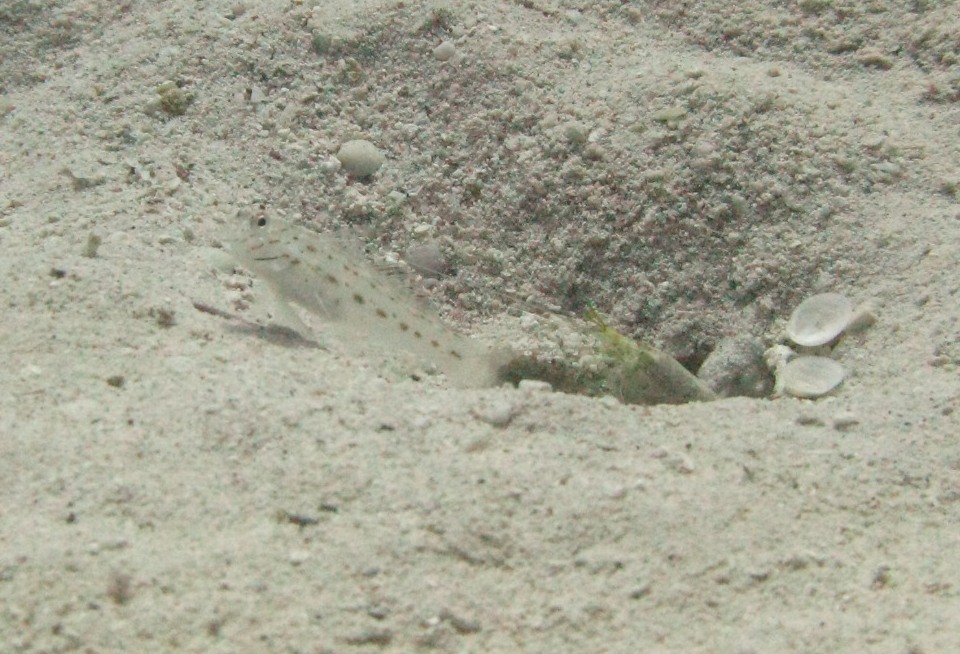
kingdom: Animalia
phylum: Chordata
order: Perciformes
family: Gobiidae
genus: Ctenogobiops
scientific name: Ctenogobiops crocineus
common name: Silverspot shrimpgoby
